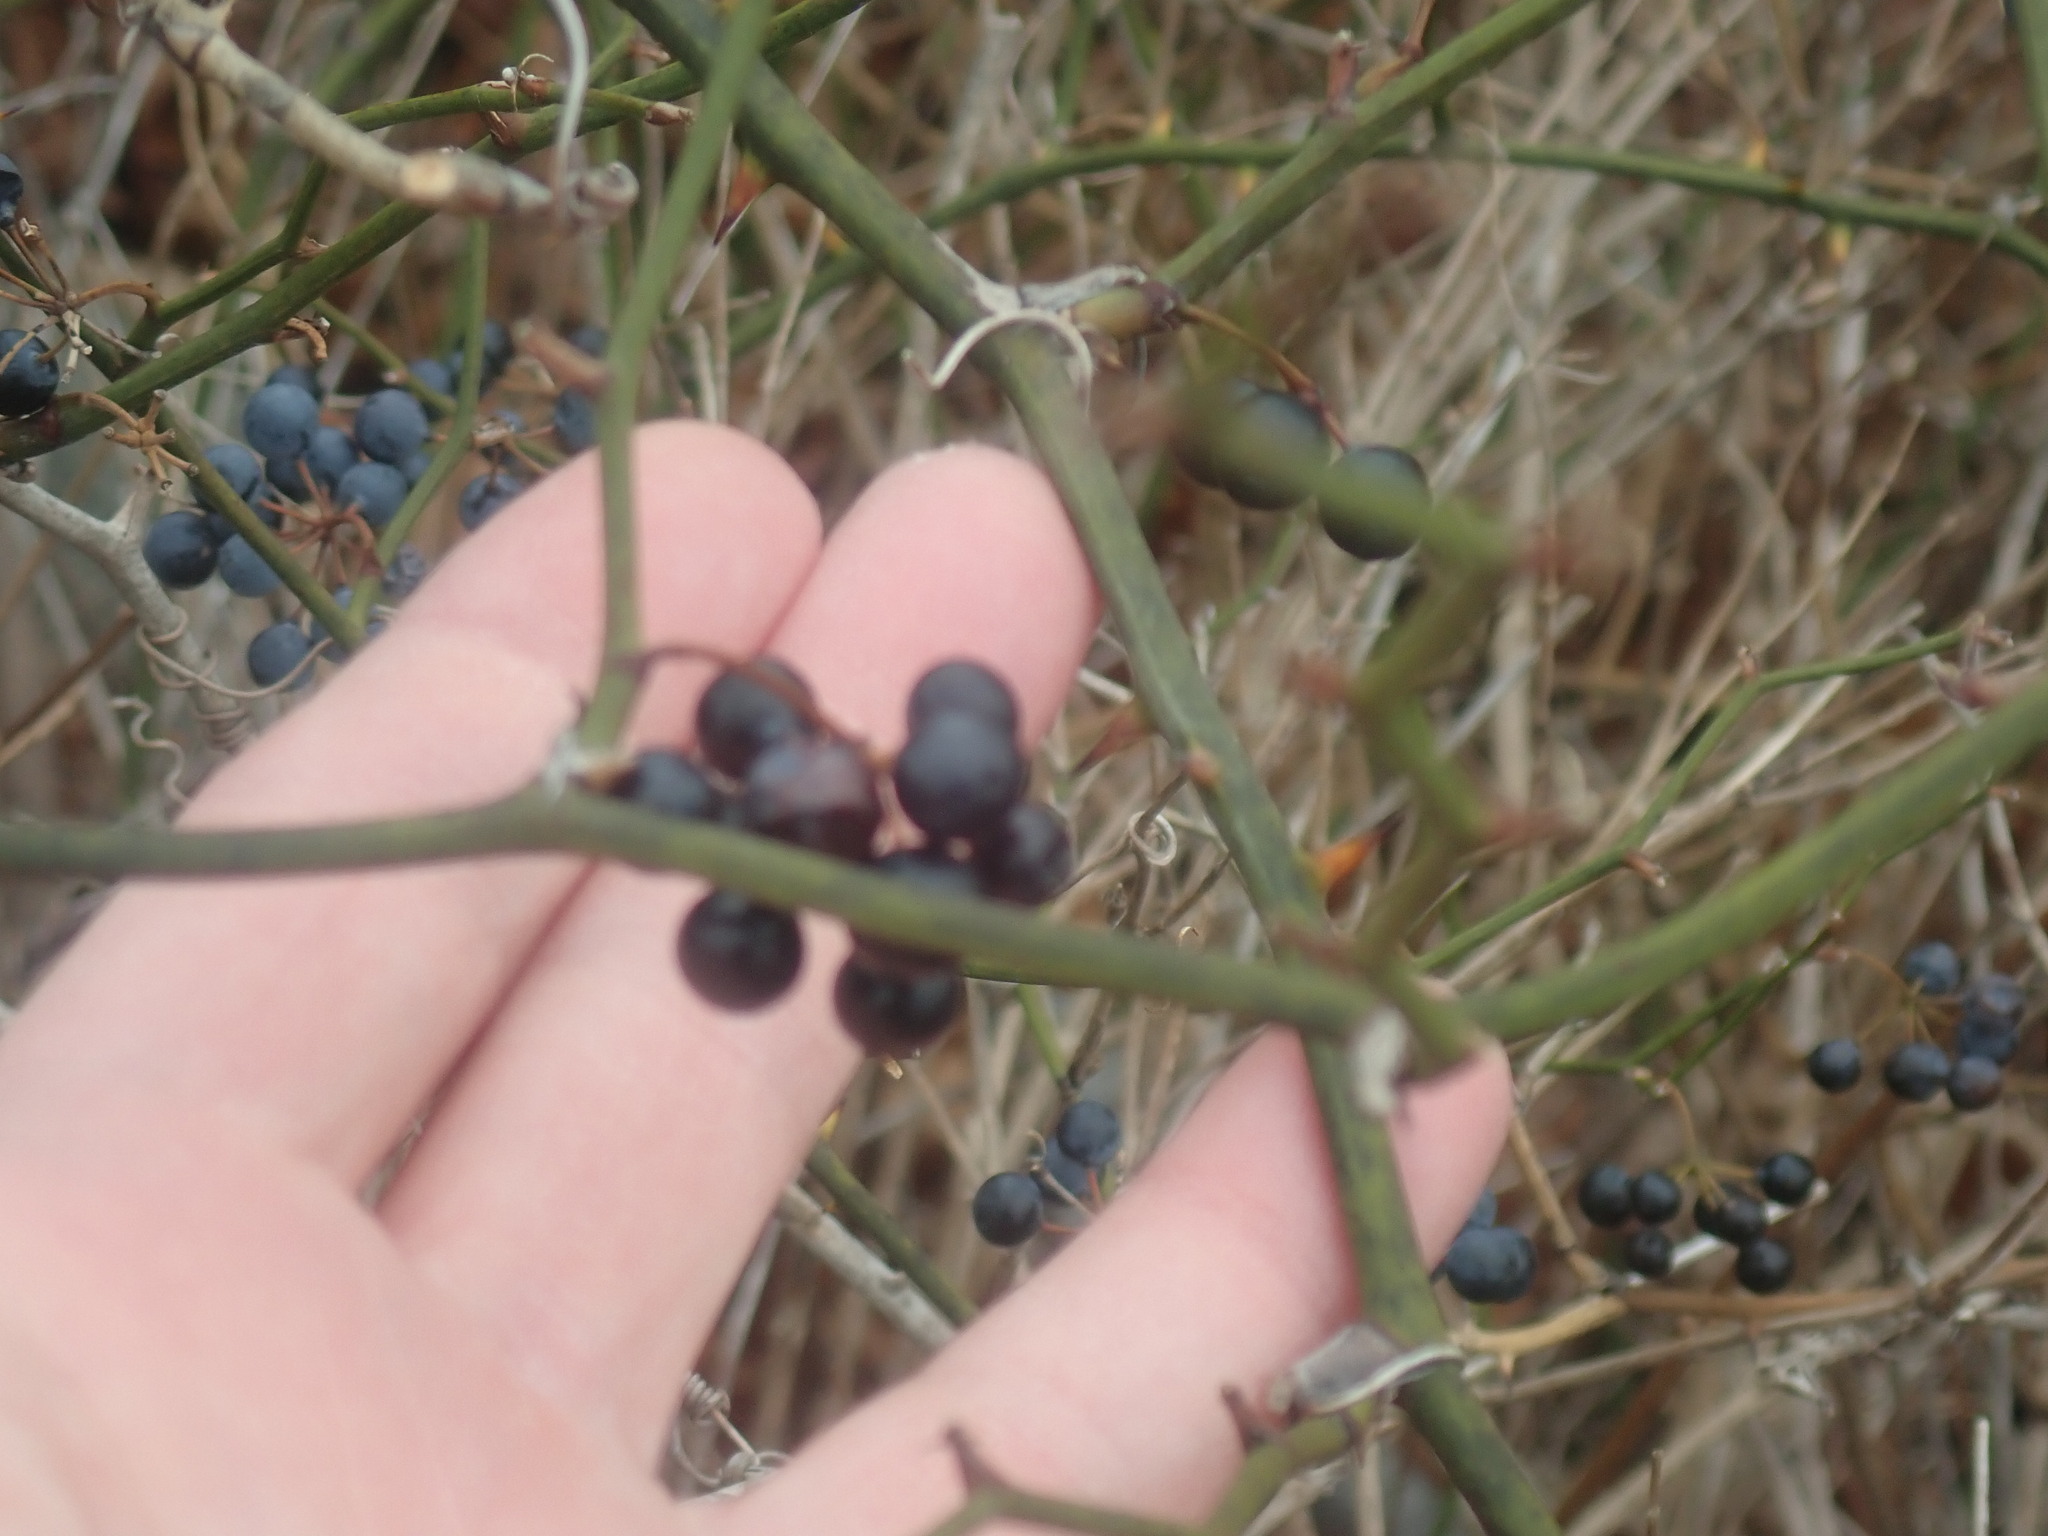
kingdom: Plantae
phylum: Tracheophyta
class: Liliopsida
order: Liliales
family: Smilacaceae
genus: Smilax
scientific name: Smilax rotundifolia
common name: Bullbriar
